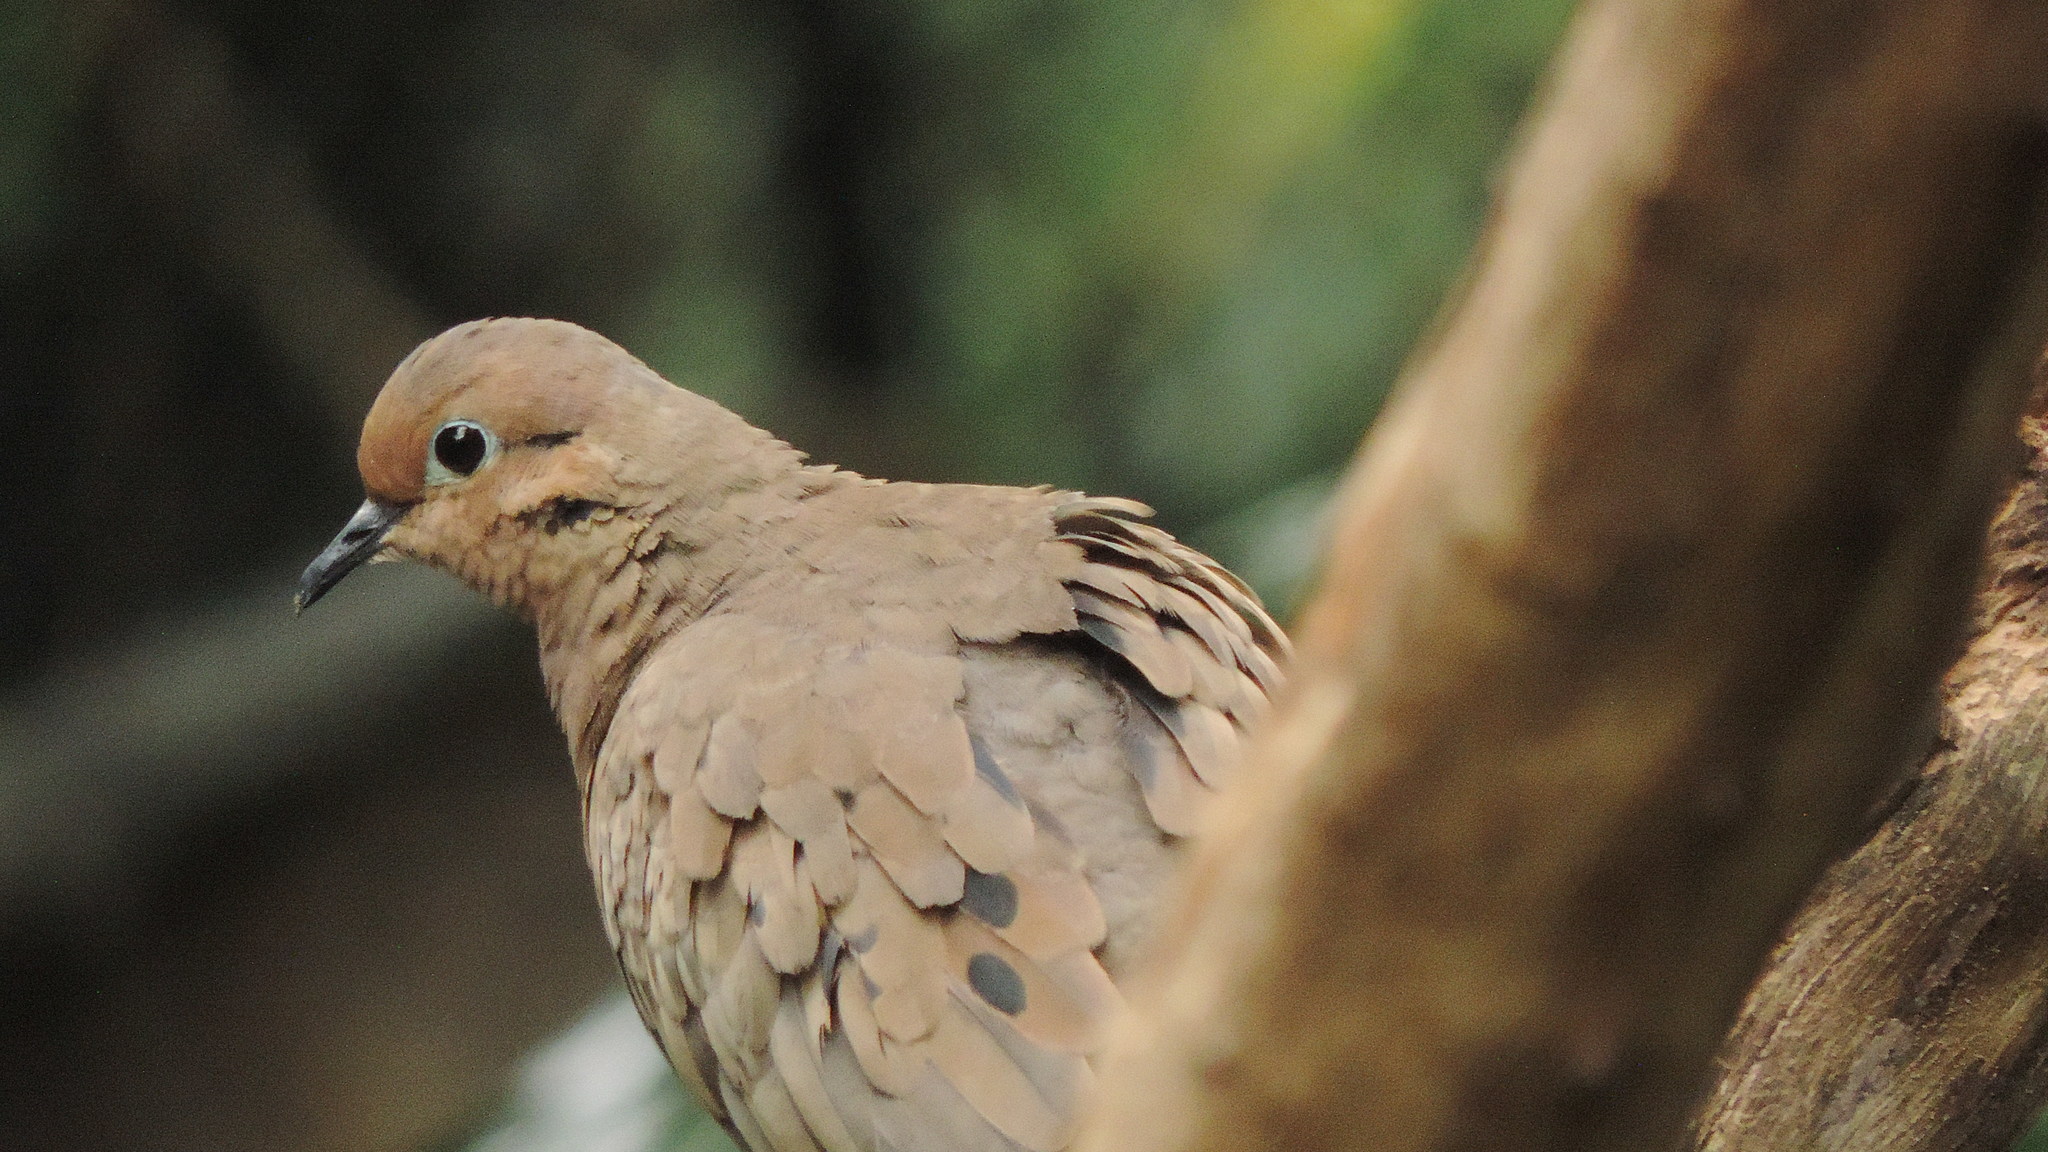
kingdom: Animalia
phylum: Chordata
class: Aves
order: Columbiformes
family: Columbidae
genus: Zenaida
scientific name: Zenaida auriculata
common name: Eared dove
